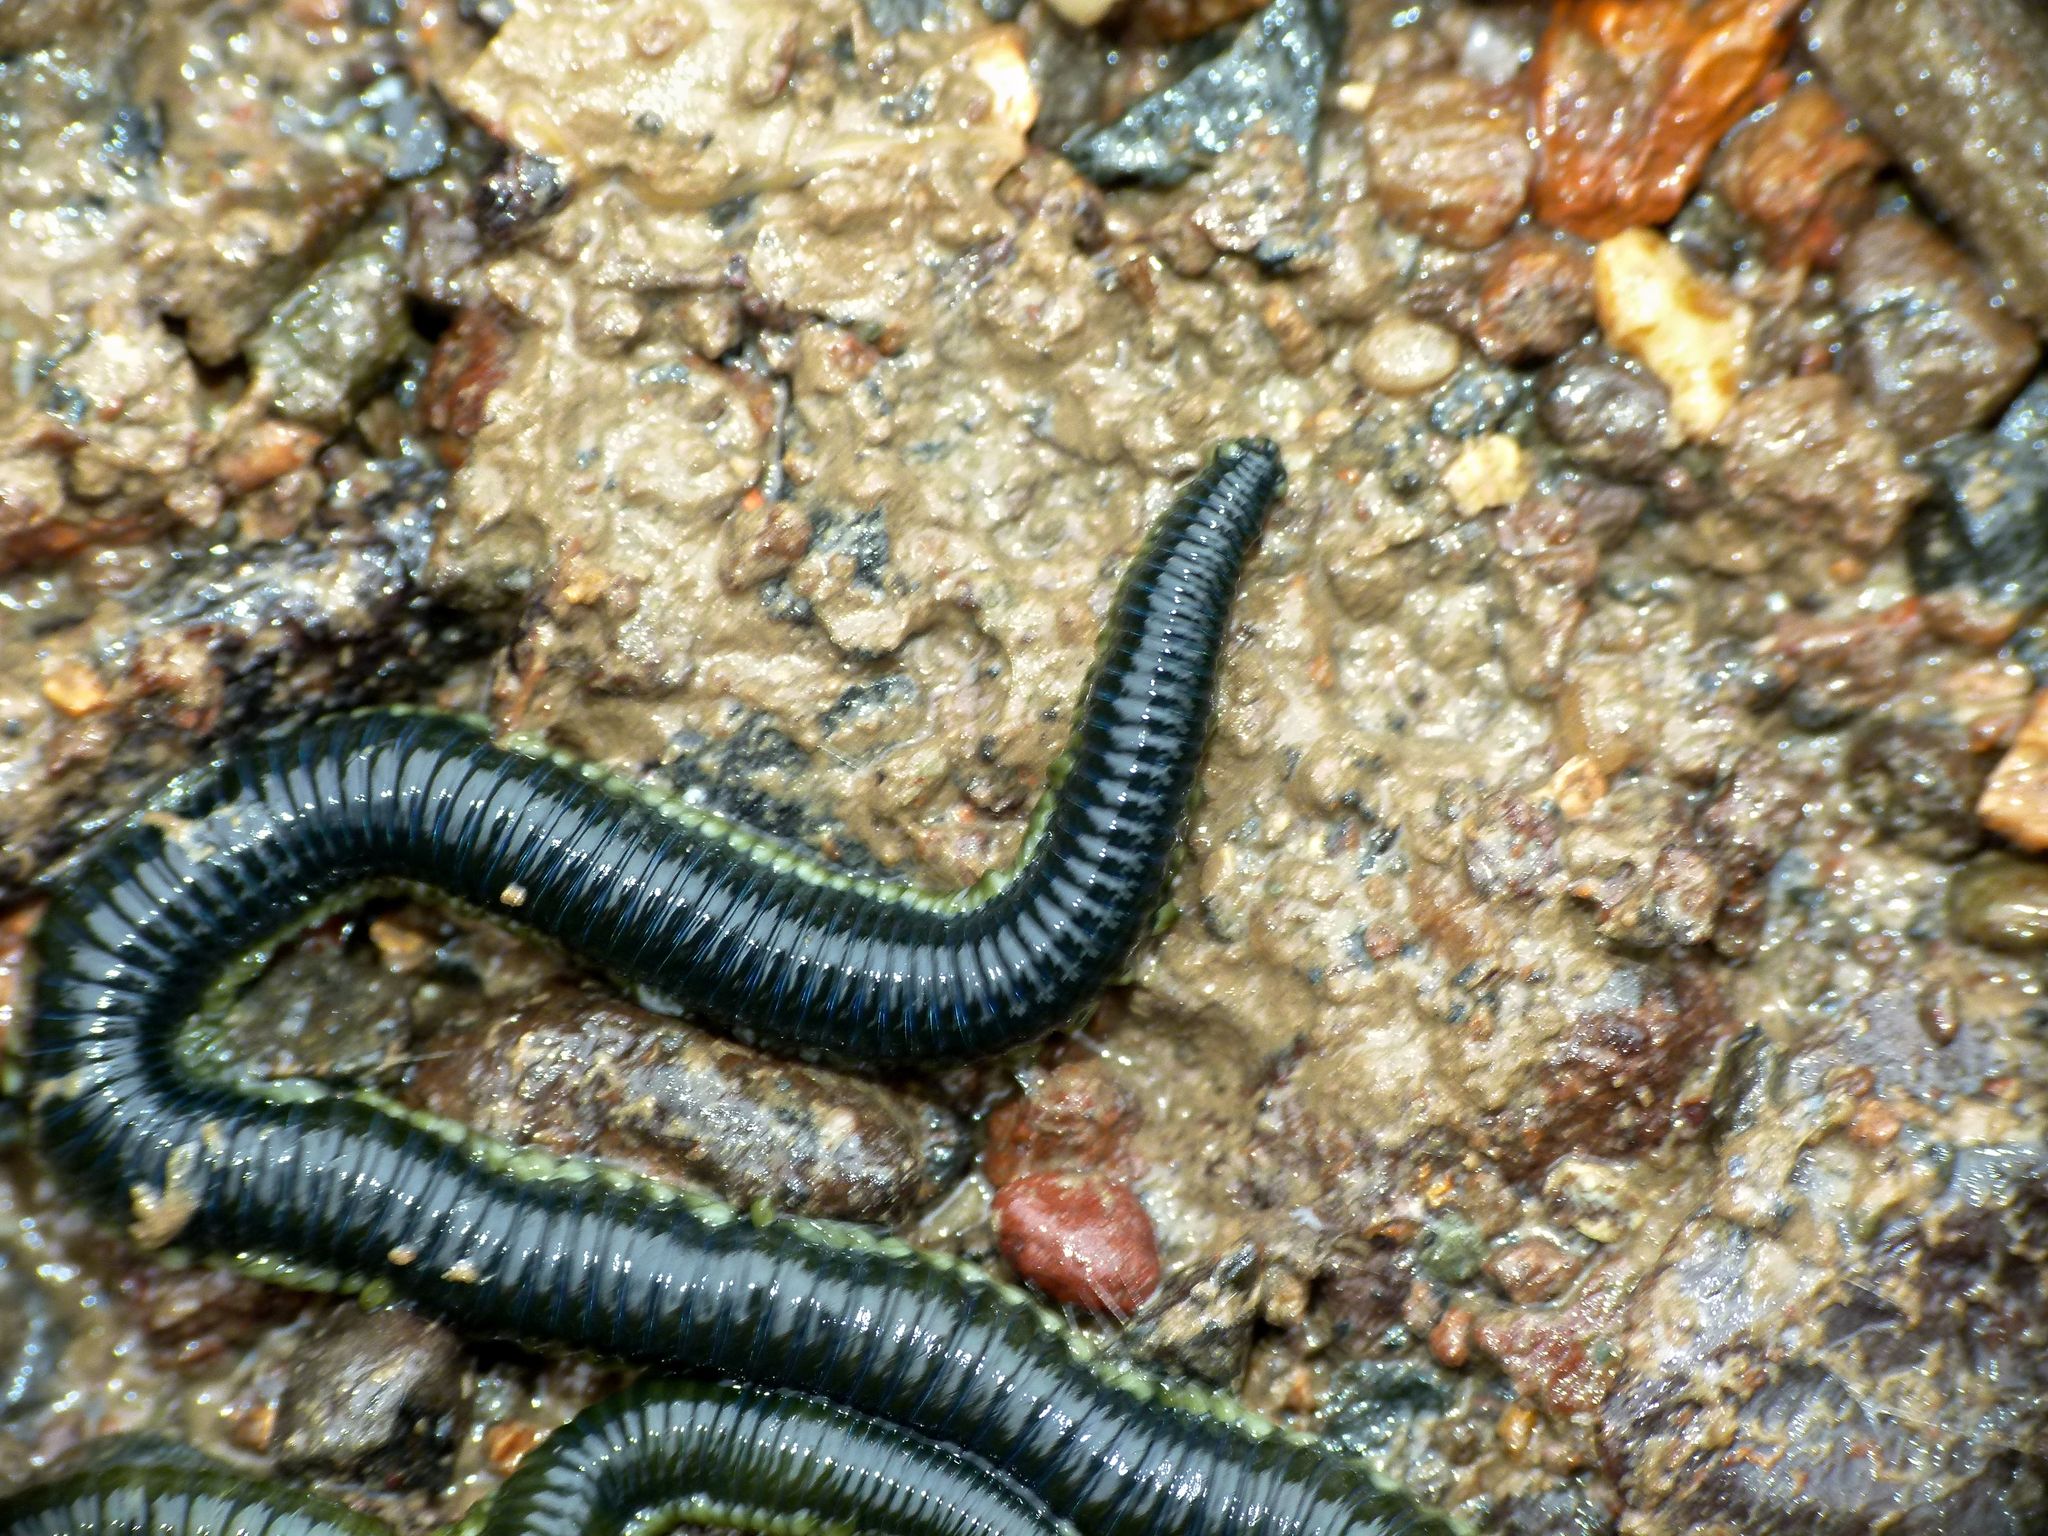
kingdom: Animalia
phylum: Annelida
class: Polychaeta
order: Phyllodocida
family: Phyllodocidae
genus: Eulalia
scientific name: Eulalia microphylla
